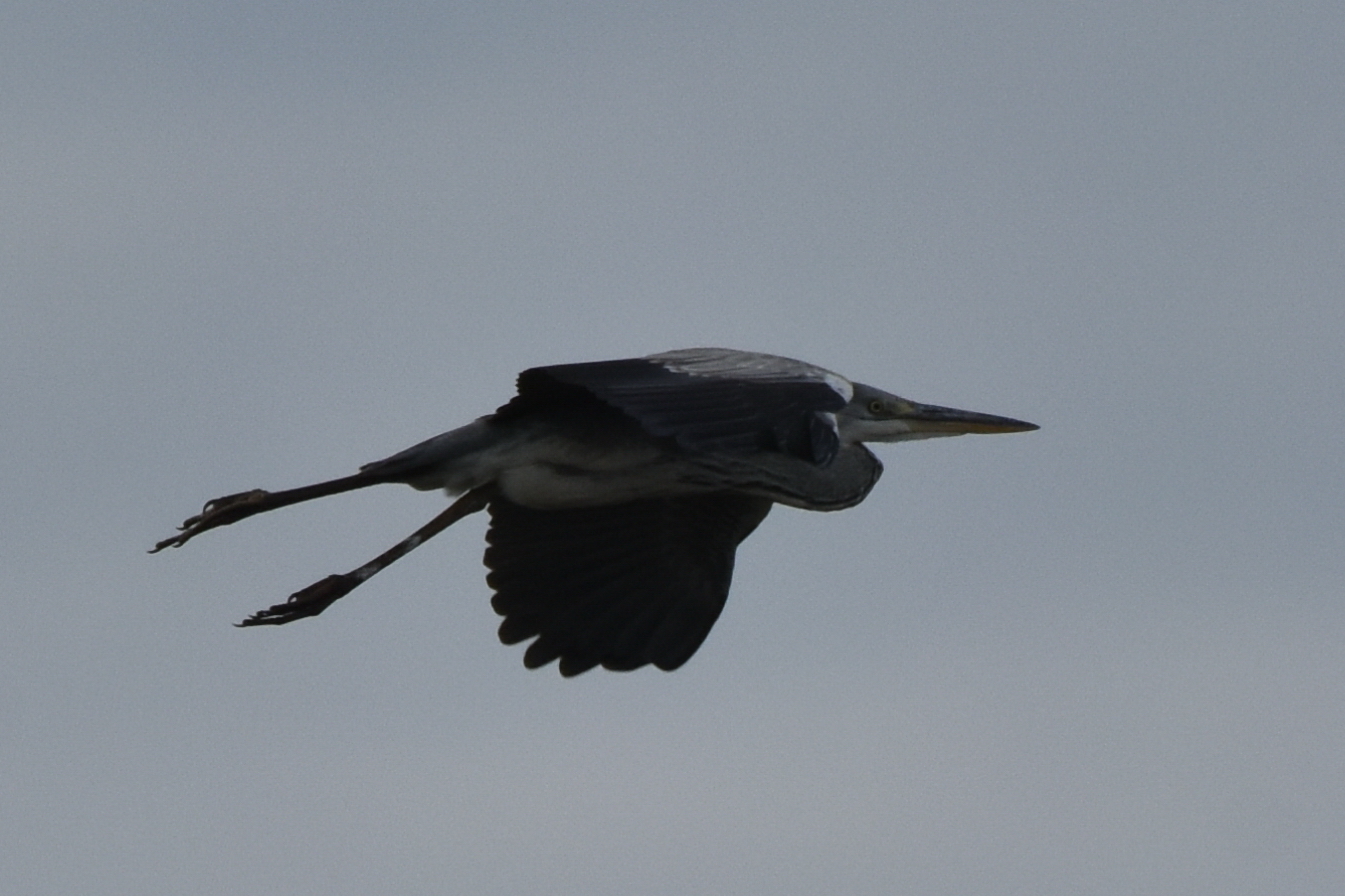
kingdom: Animalia
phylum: Chordata
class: Aves
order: Pelecaniformes
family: Ardeidae
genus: Ardea
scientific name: Ardea cinerea
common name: Grey heron
